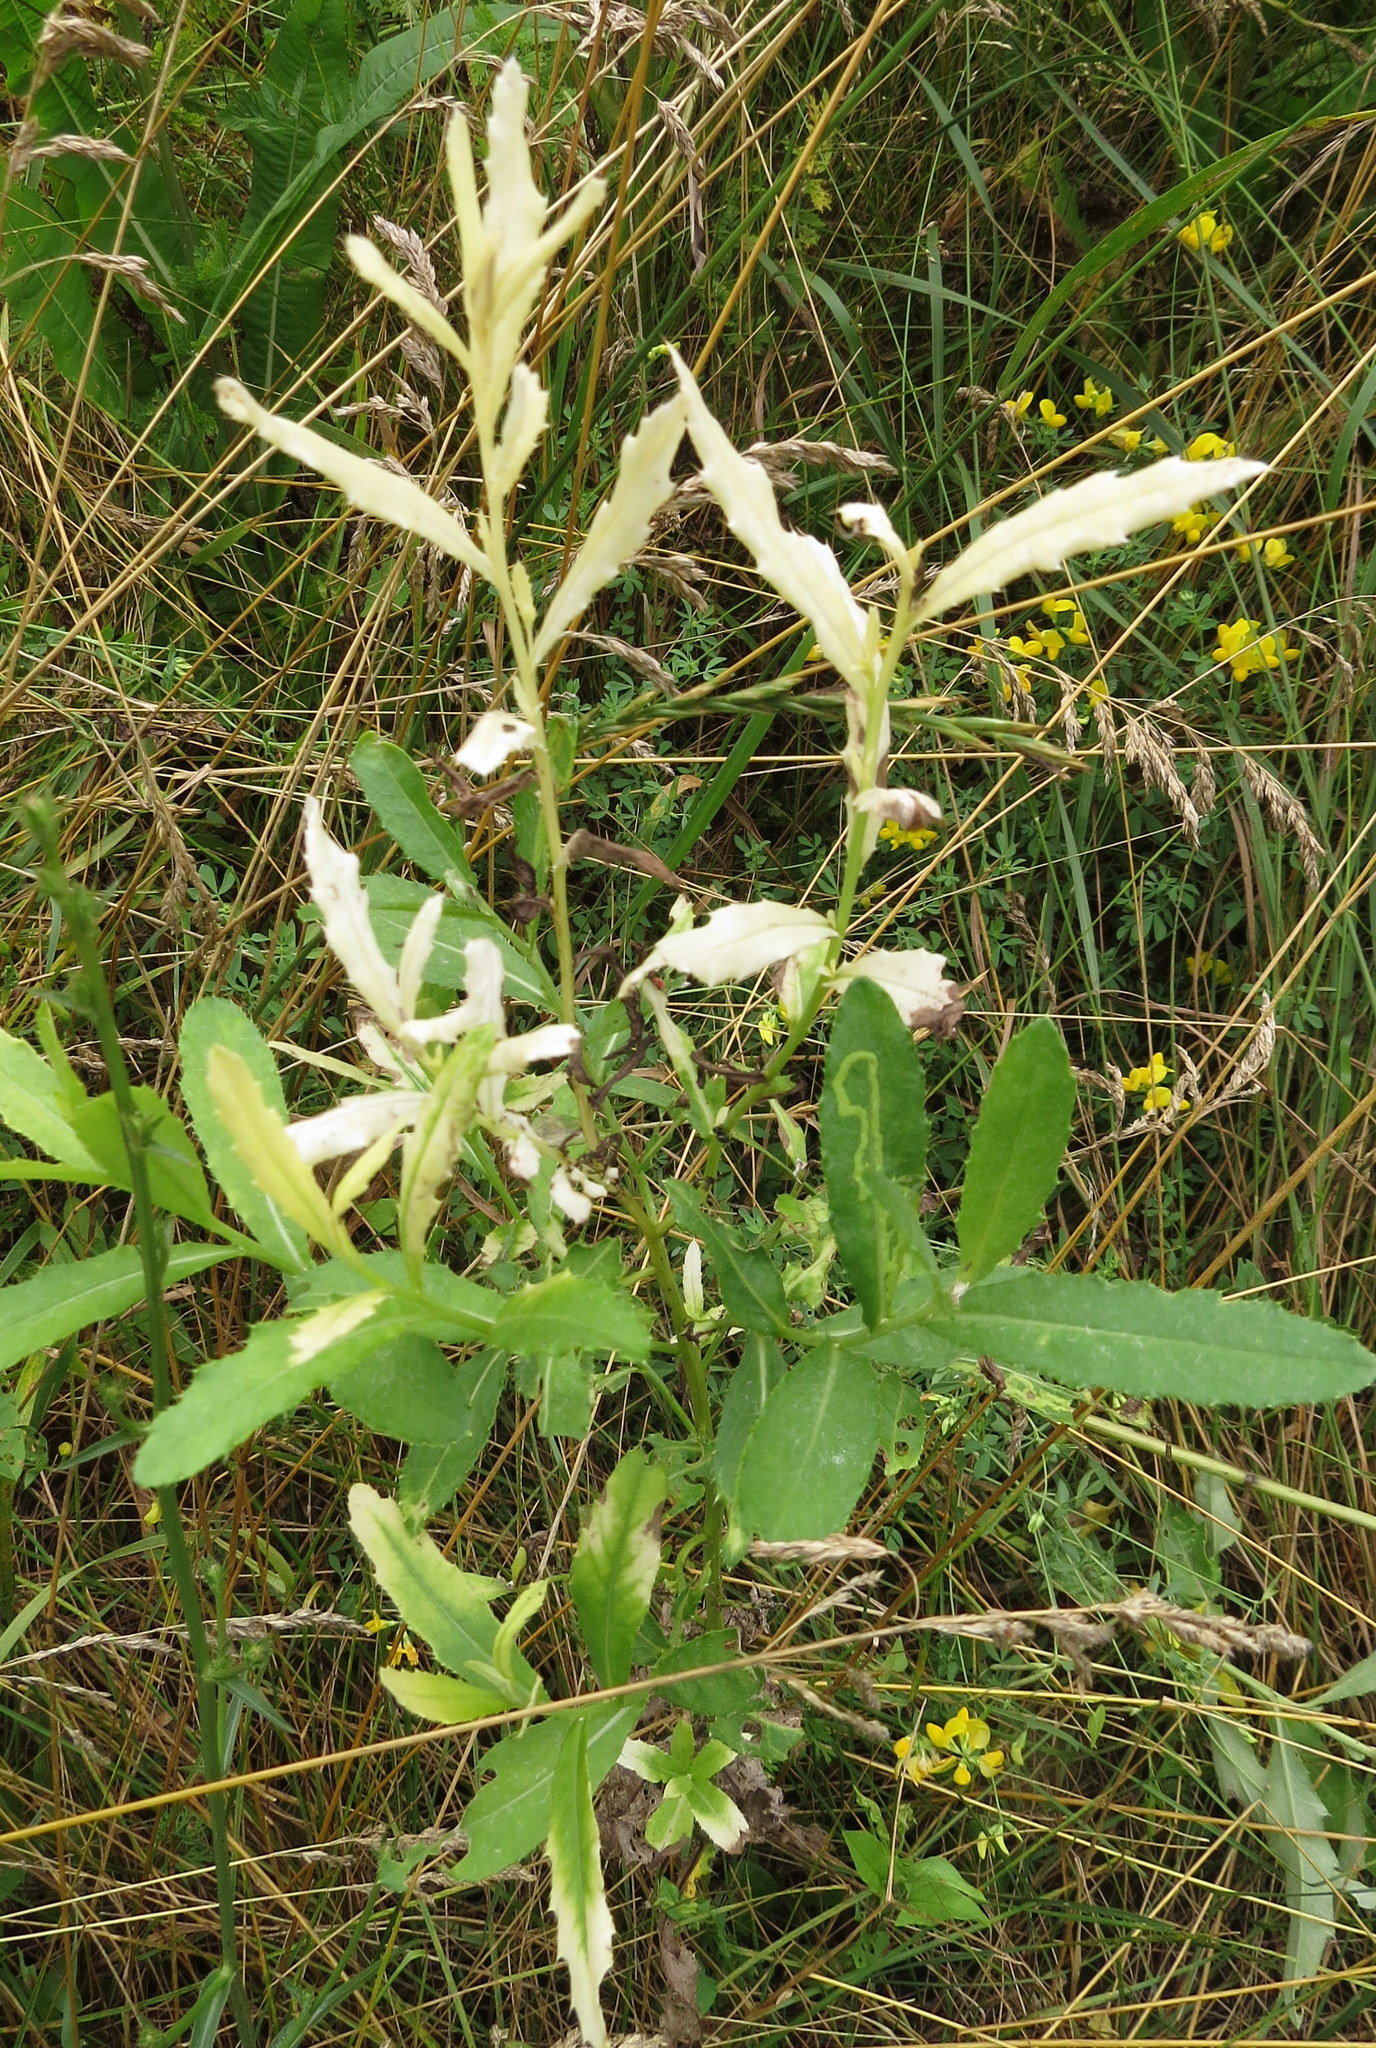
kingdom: Bacteria
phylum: Proteobacteria
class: Gammaproteobacteria
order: Pseudomonadales
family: Pseudomonadaceae
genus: Pseudomonas
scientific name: Pseudomonas syringae
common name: Bacterial speck
